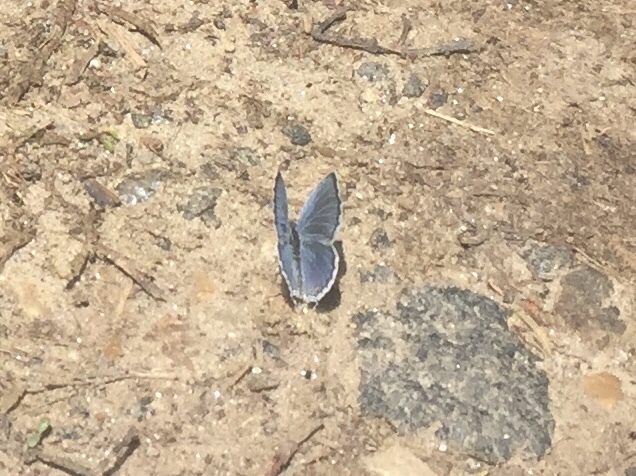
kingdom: Animalia
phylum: Arthropoda
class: Insecta
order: Lepidoptera
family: Lycaenidae
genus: Elkalyce
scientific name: Elkalyce comyntas
